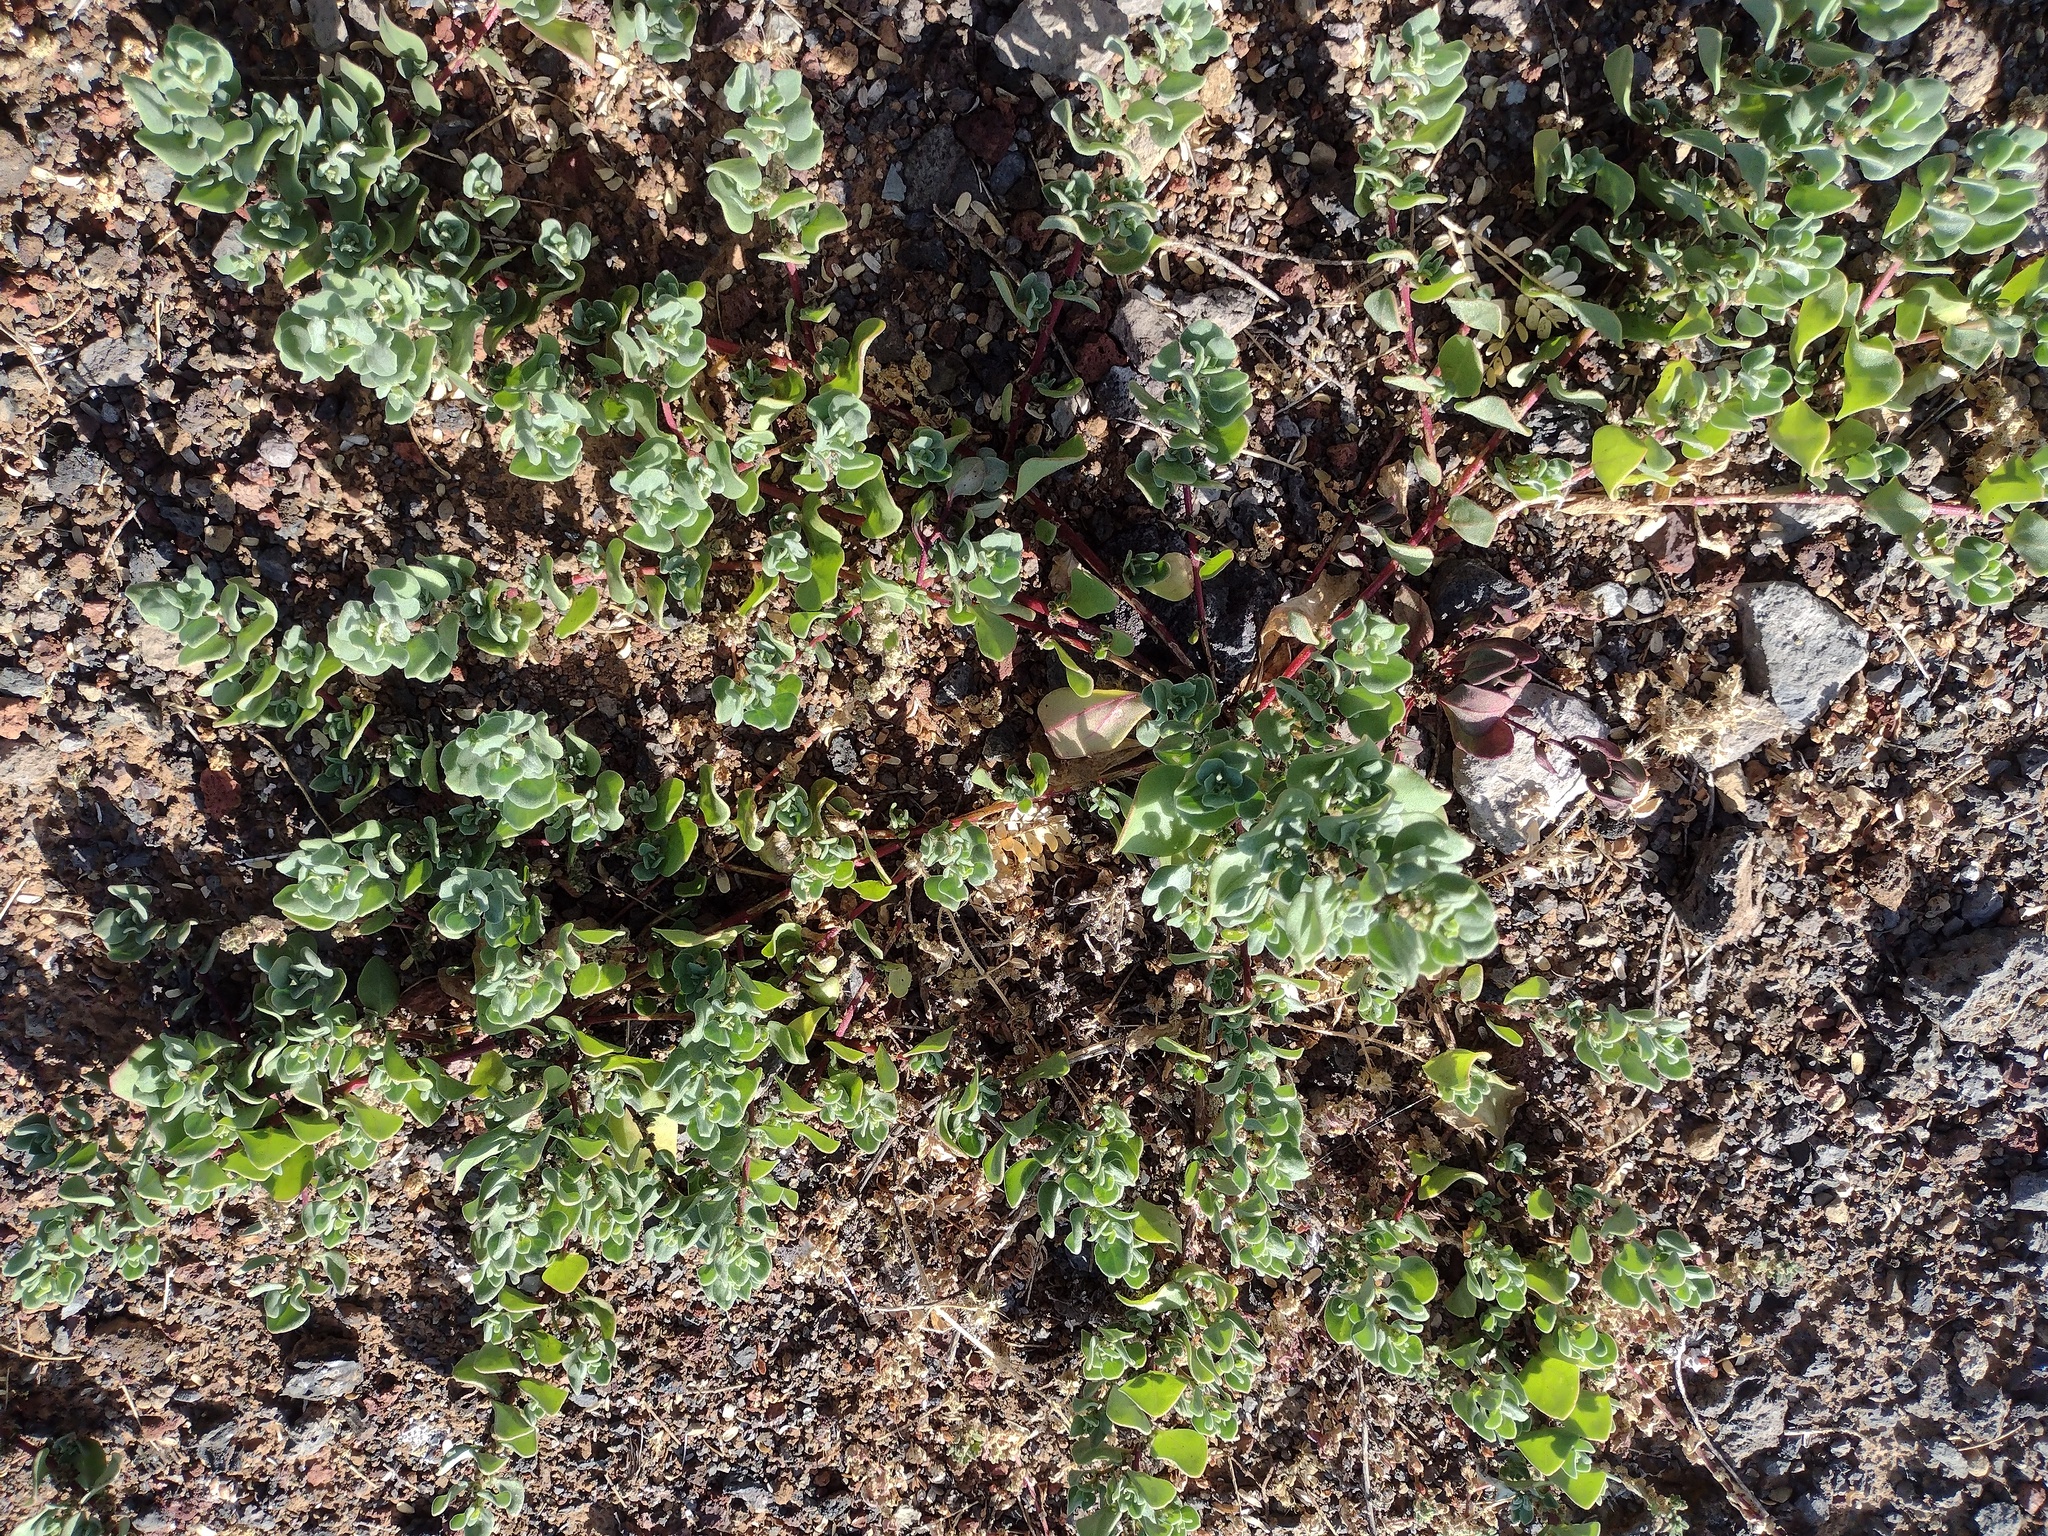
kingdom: Plantae
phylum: Tracheophyta
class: Magnoliopsida
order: Caryophyllales
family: Aizoaceae
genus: Tetragonia
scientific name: Tetragonia echinata
